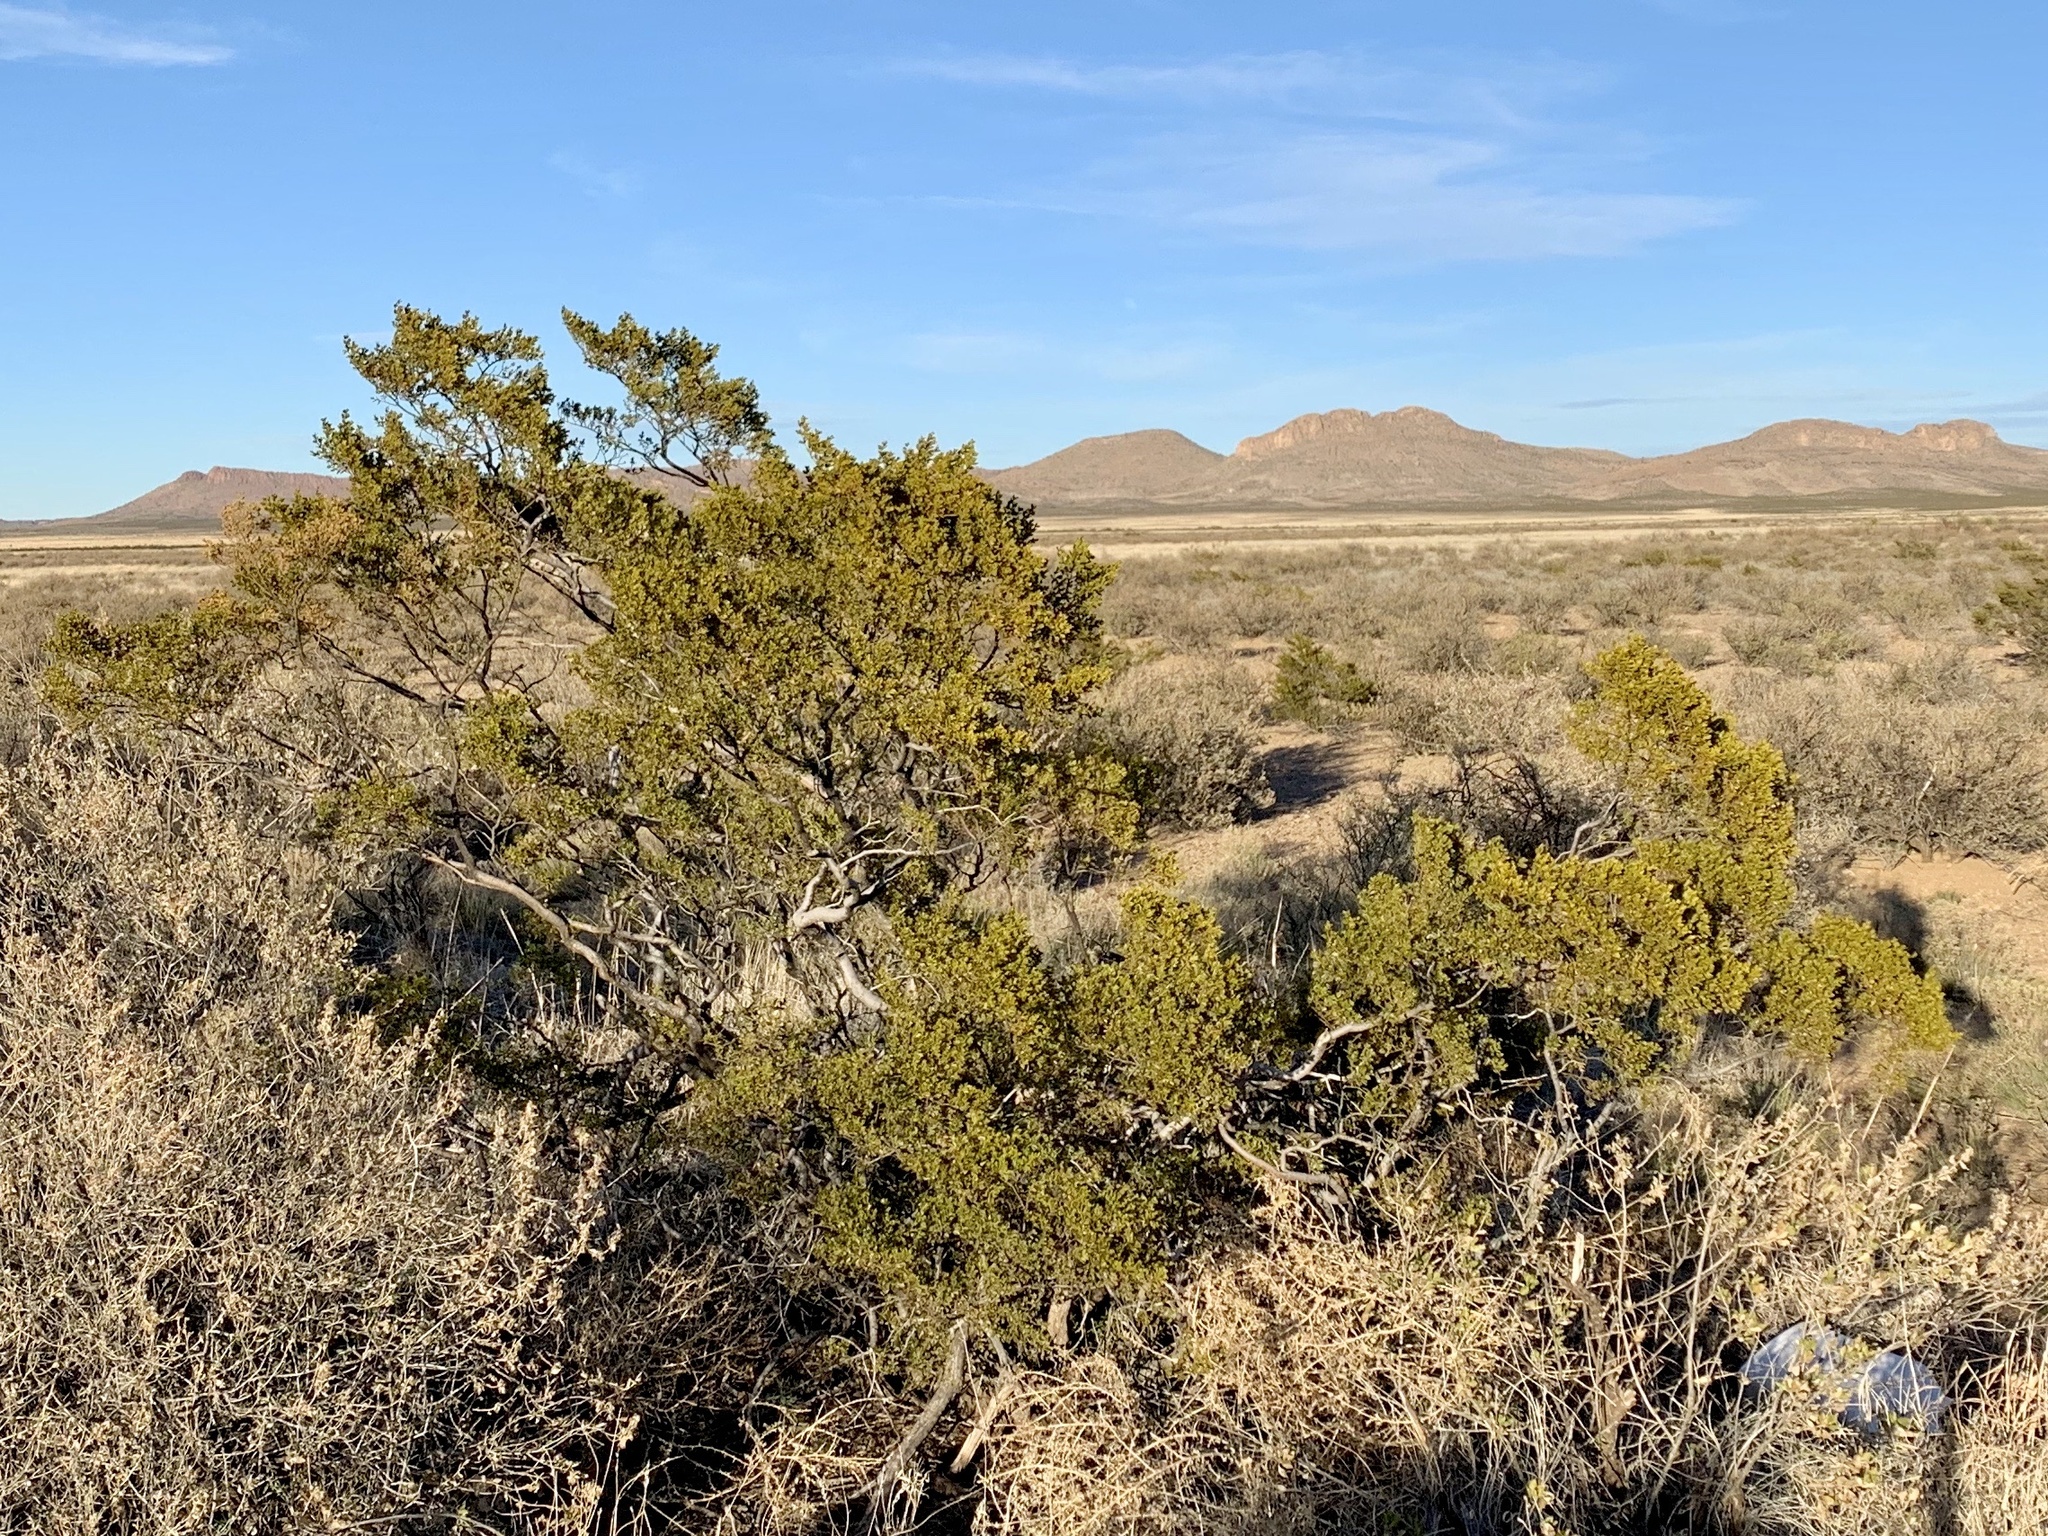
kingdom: Plantae
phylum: Tracheophyta
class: Magnoliopsida
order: Zygophyllales
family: Zygophyllaceae
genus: Larrea
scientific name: Larrea tridentata
